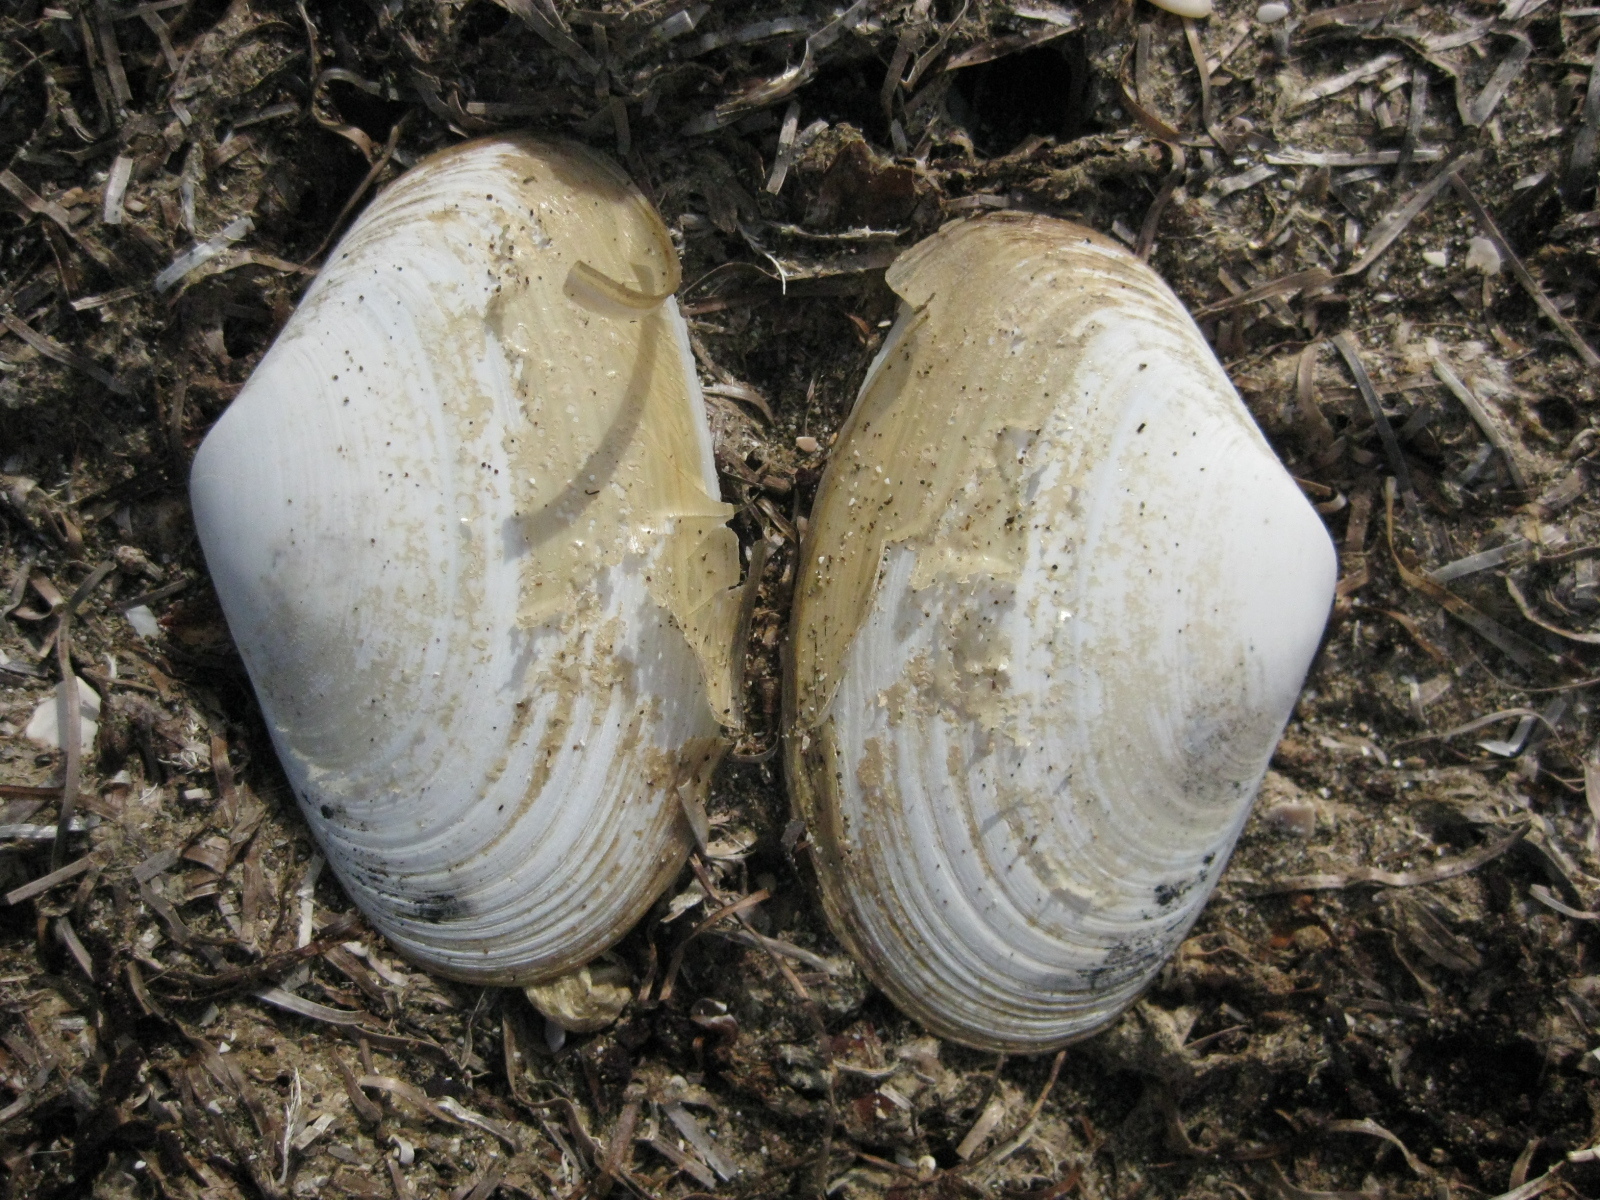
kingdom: Animalia
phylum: Mollusca
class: Bivalvia
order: Venerida
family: Mesodesmatidae
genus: Paphies
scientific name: Paphies subtriangulata
